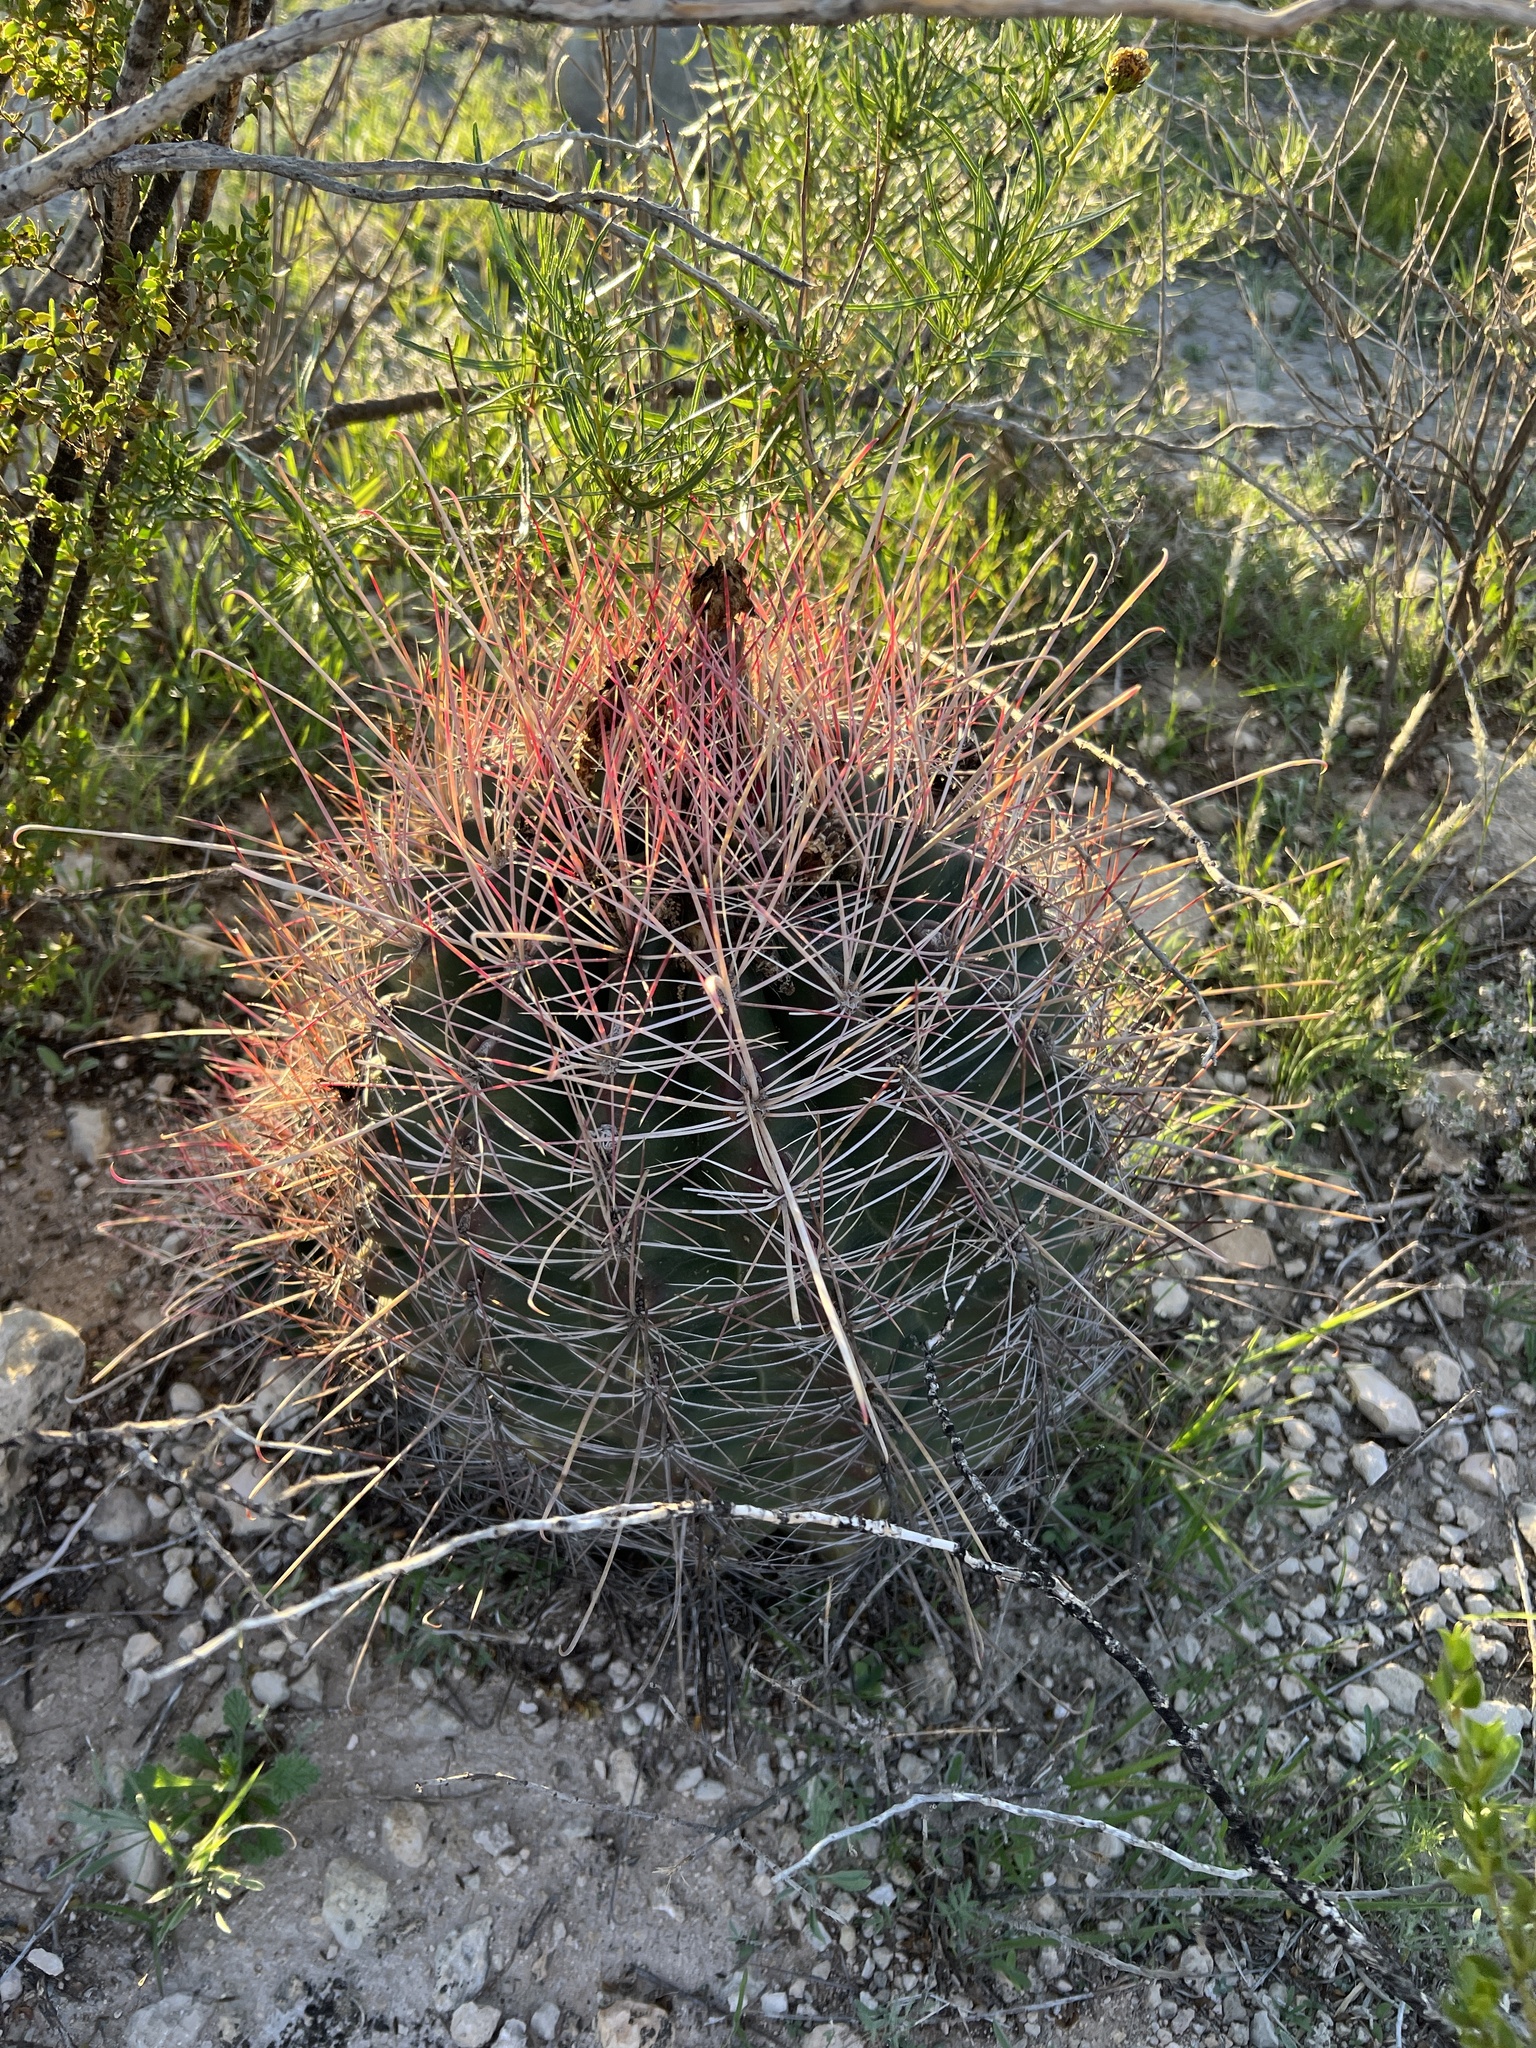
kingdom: Plantae
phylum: Tracheophyta
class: Magnoliopsida
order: Caryophyllales
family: Cactaceae
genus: Bisnaga
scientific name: Bisnaga hamatacantha
